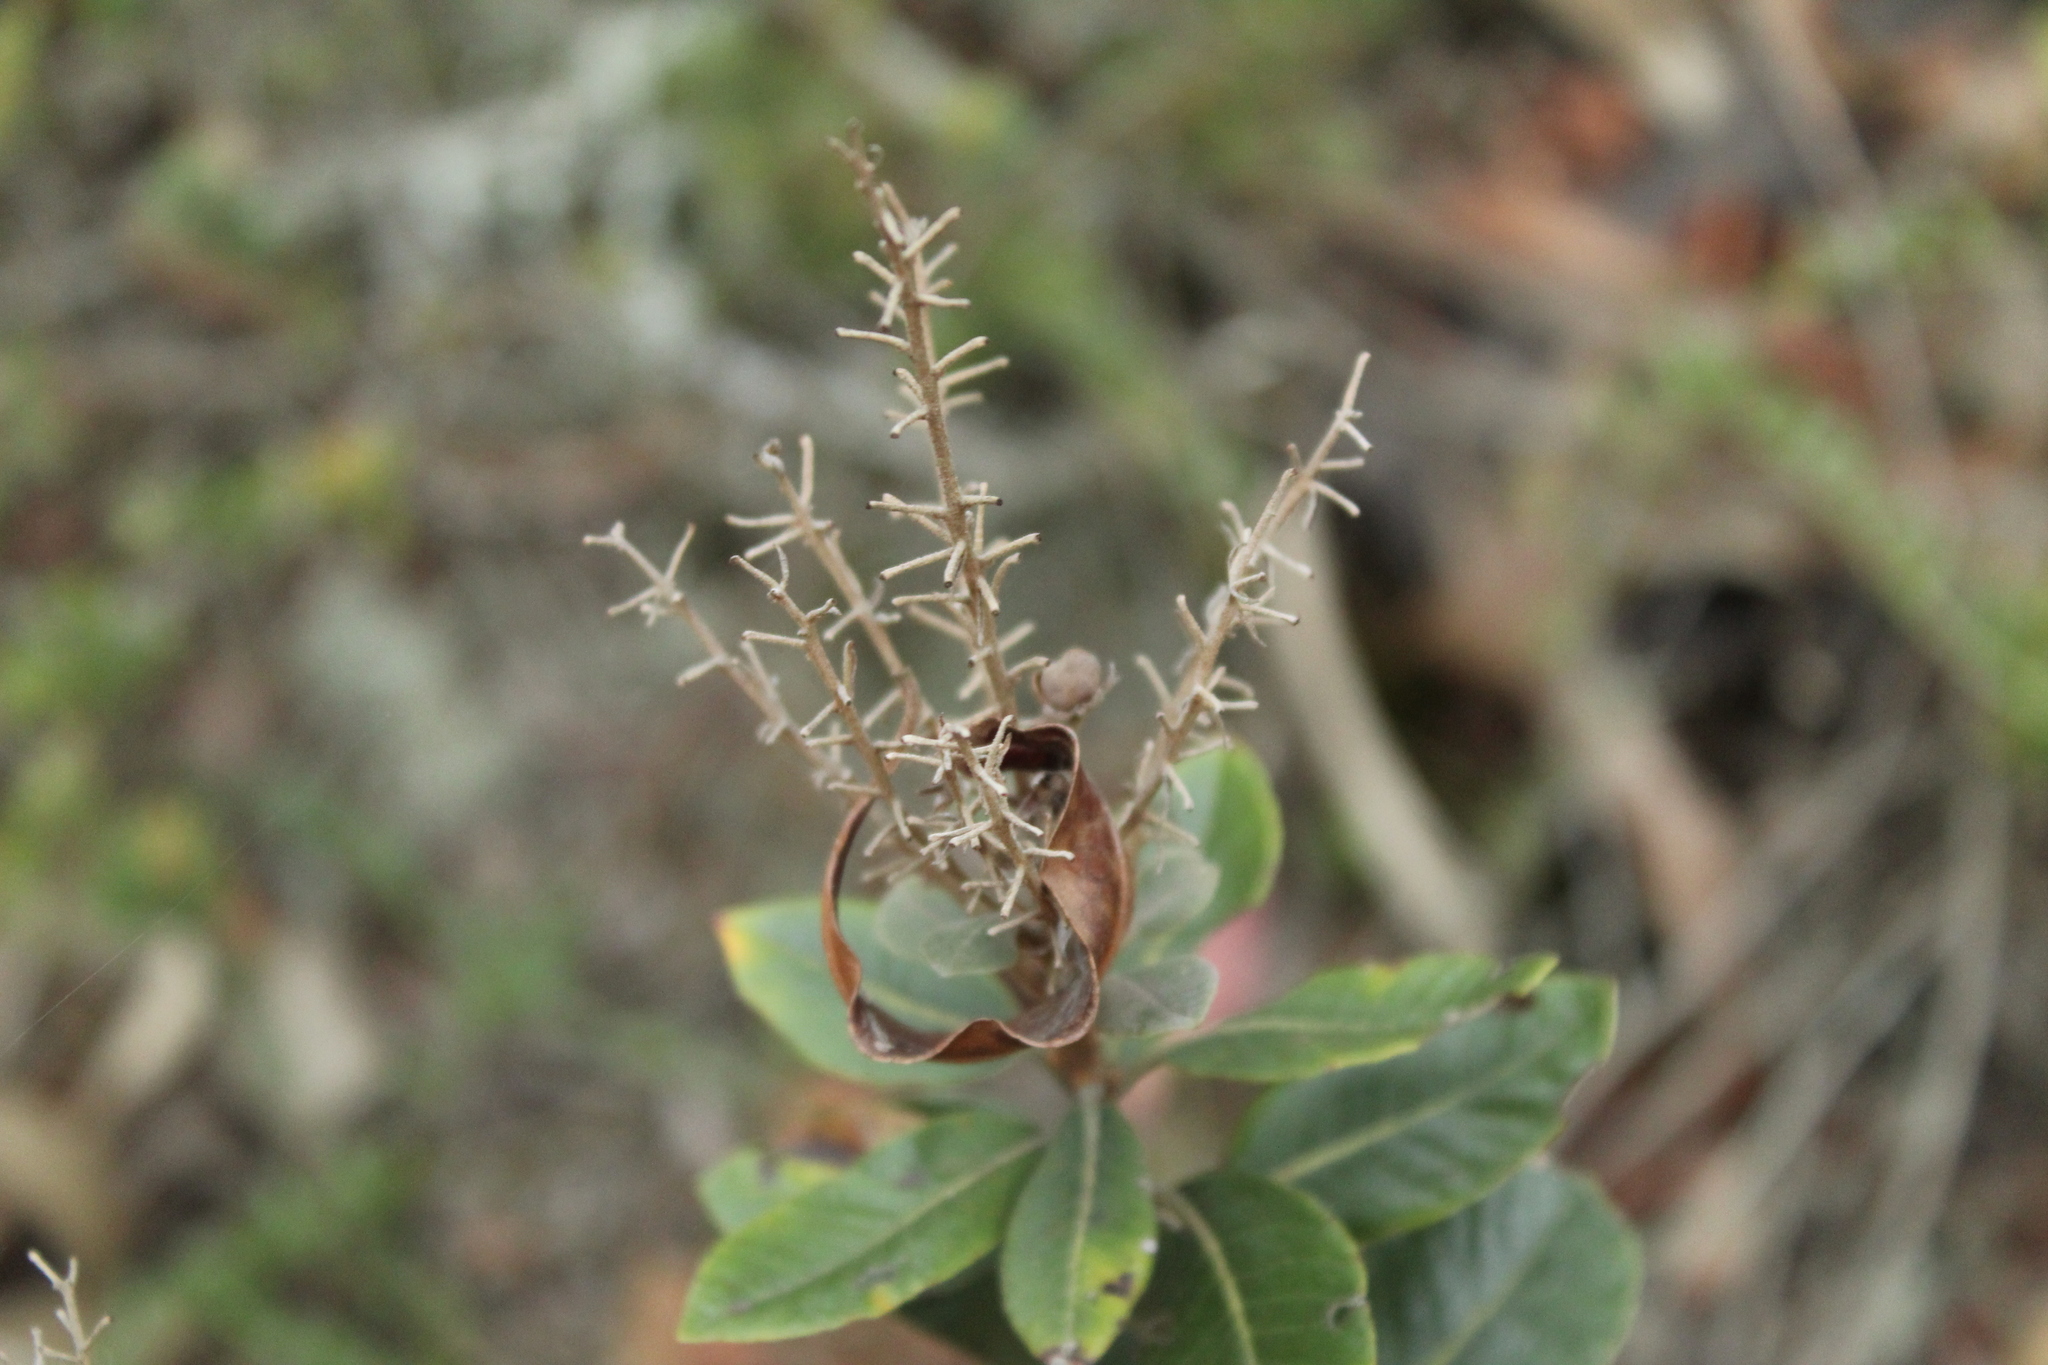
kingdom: Plantae
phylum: Tracheophyta
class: Magnoliopsida
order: Ericales
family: Clethraceae
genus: Clethra
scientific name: Clethra fimbriata
